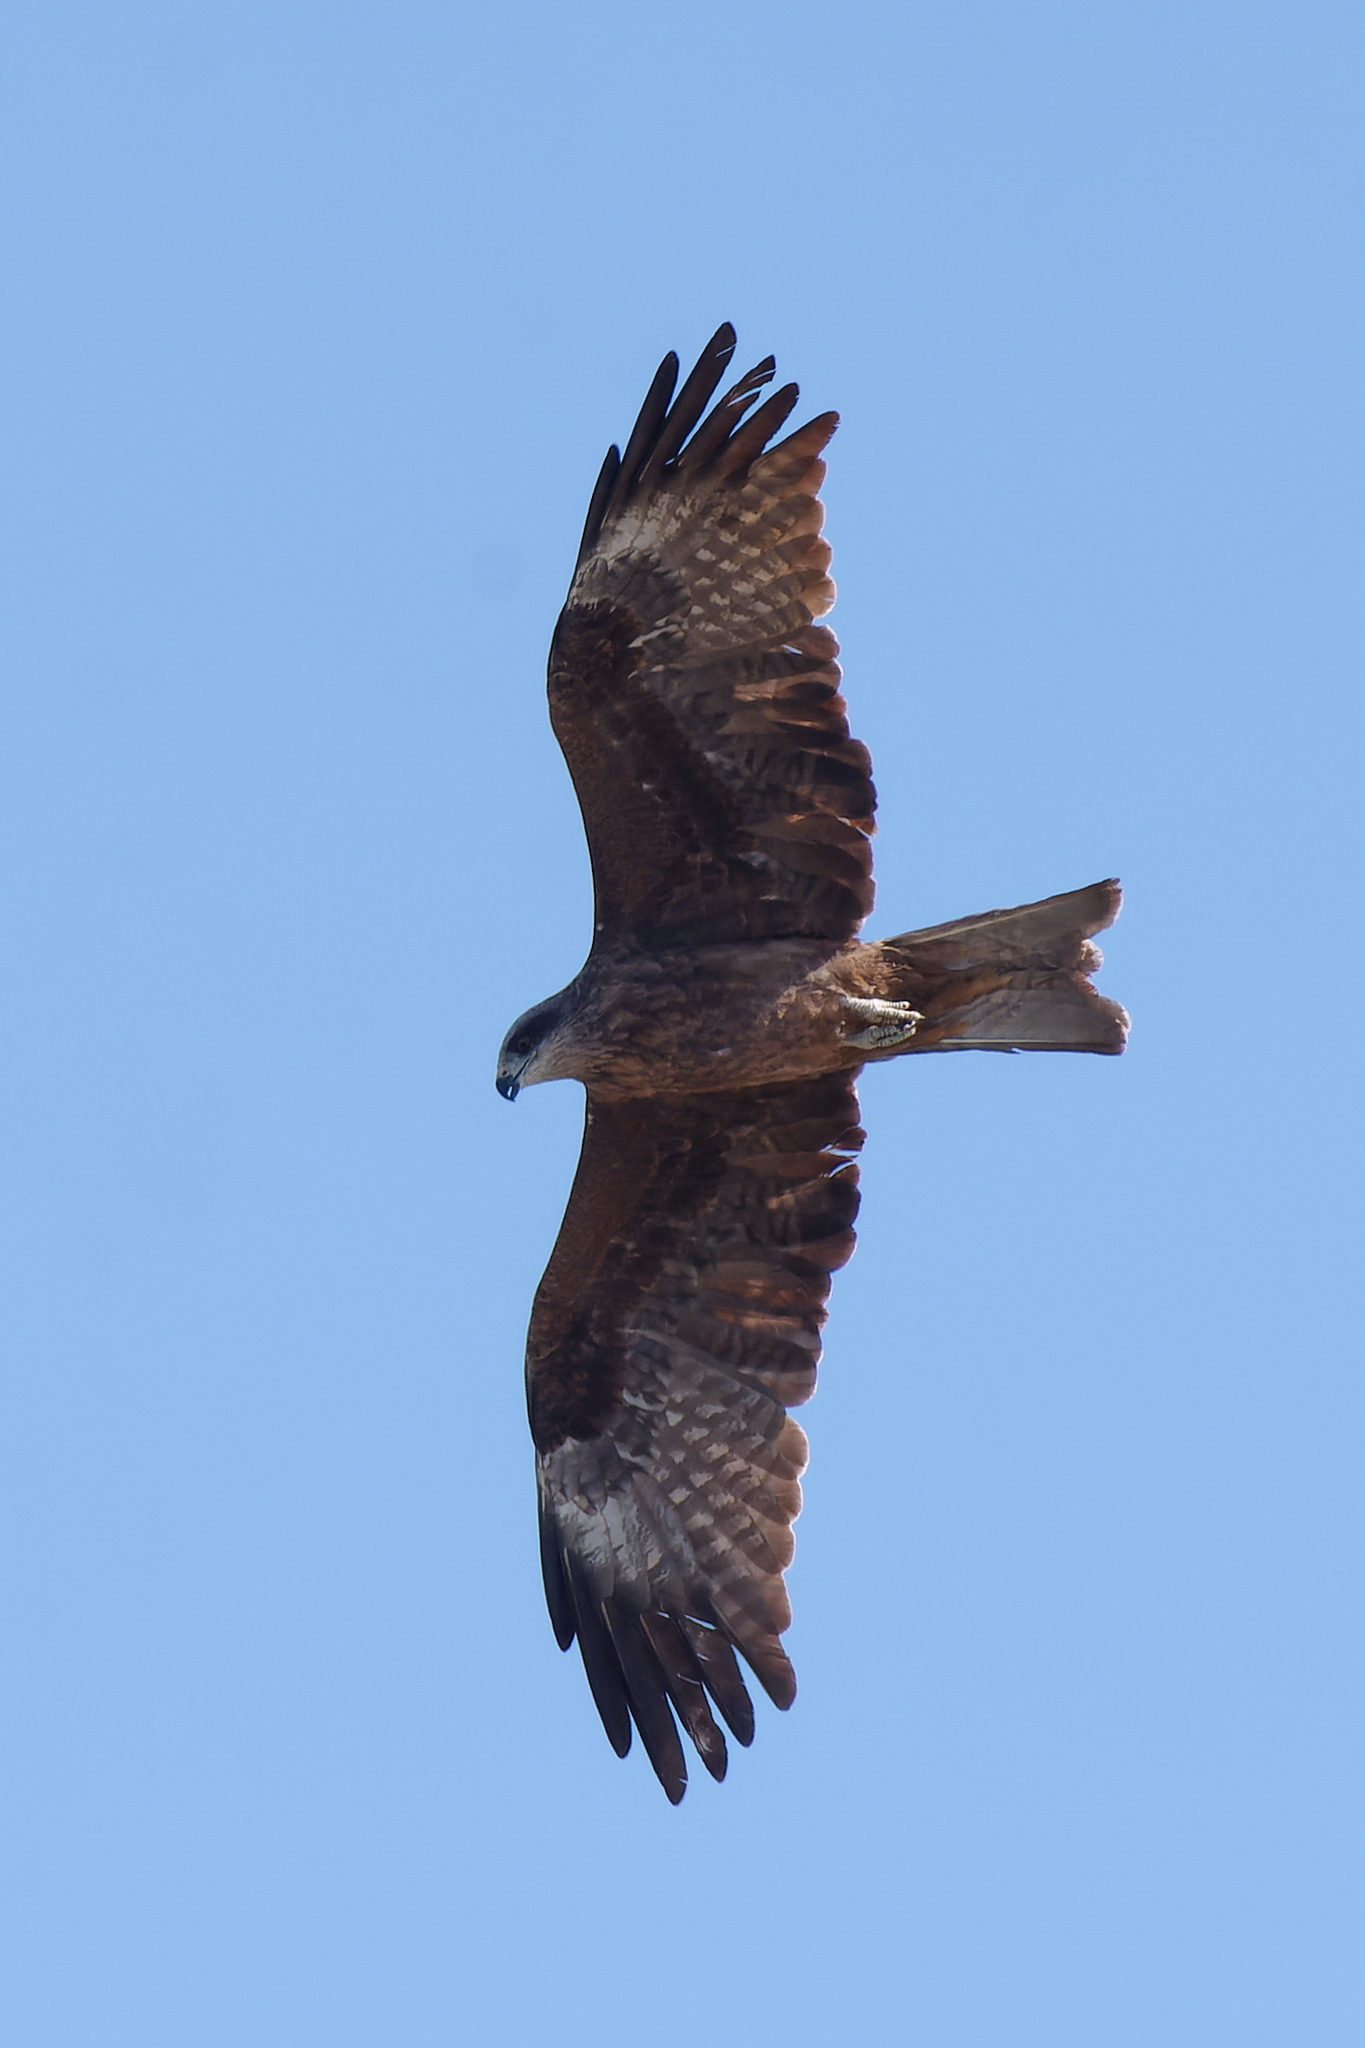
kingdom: Animalia
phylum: Chordata
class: Aves
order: Accipitriformes
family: Accipitridae
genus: Milvus
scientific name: Milvus migrans
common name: Black kite
